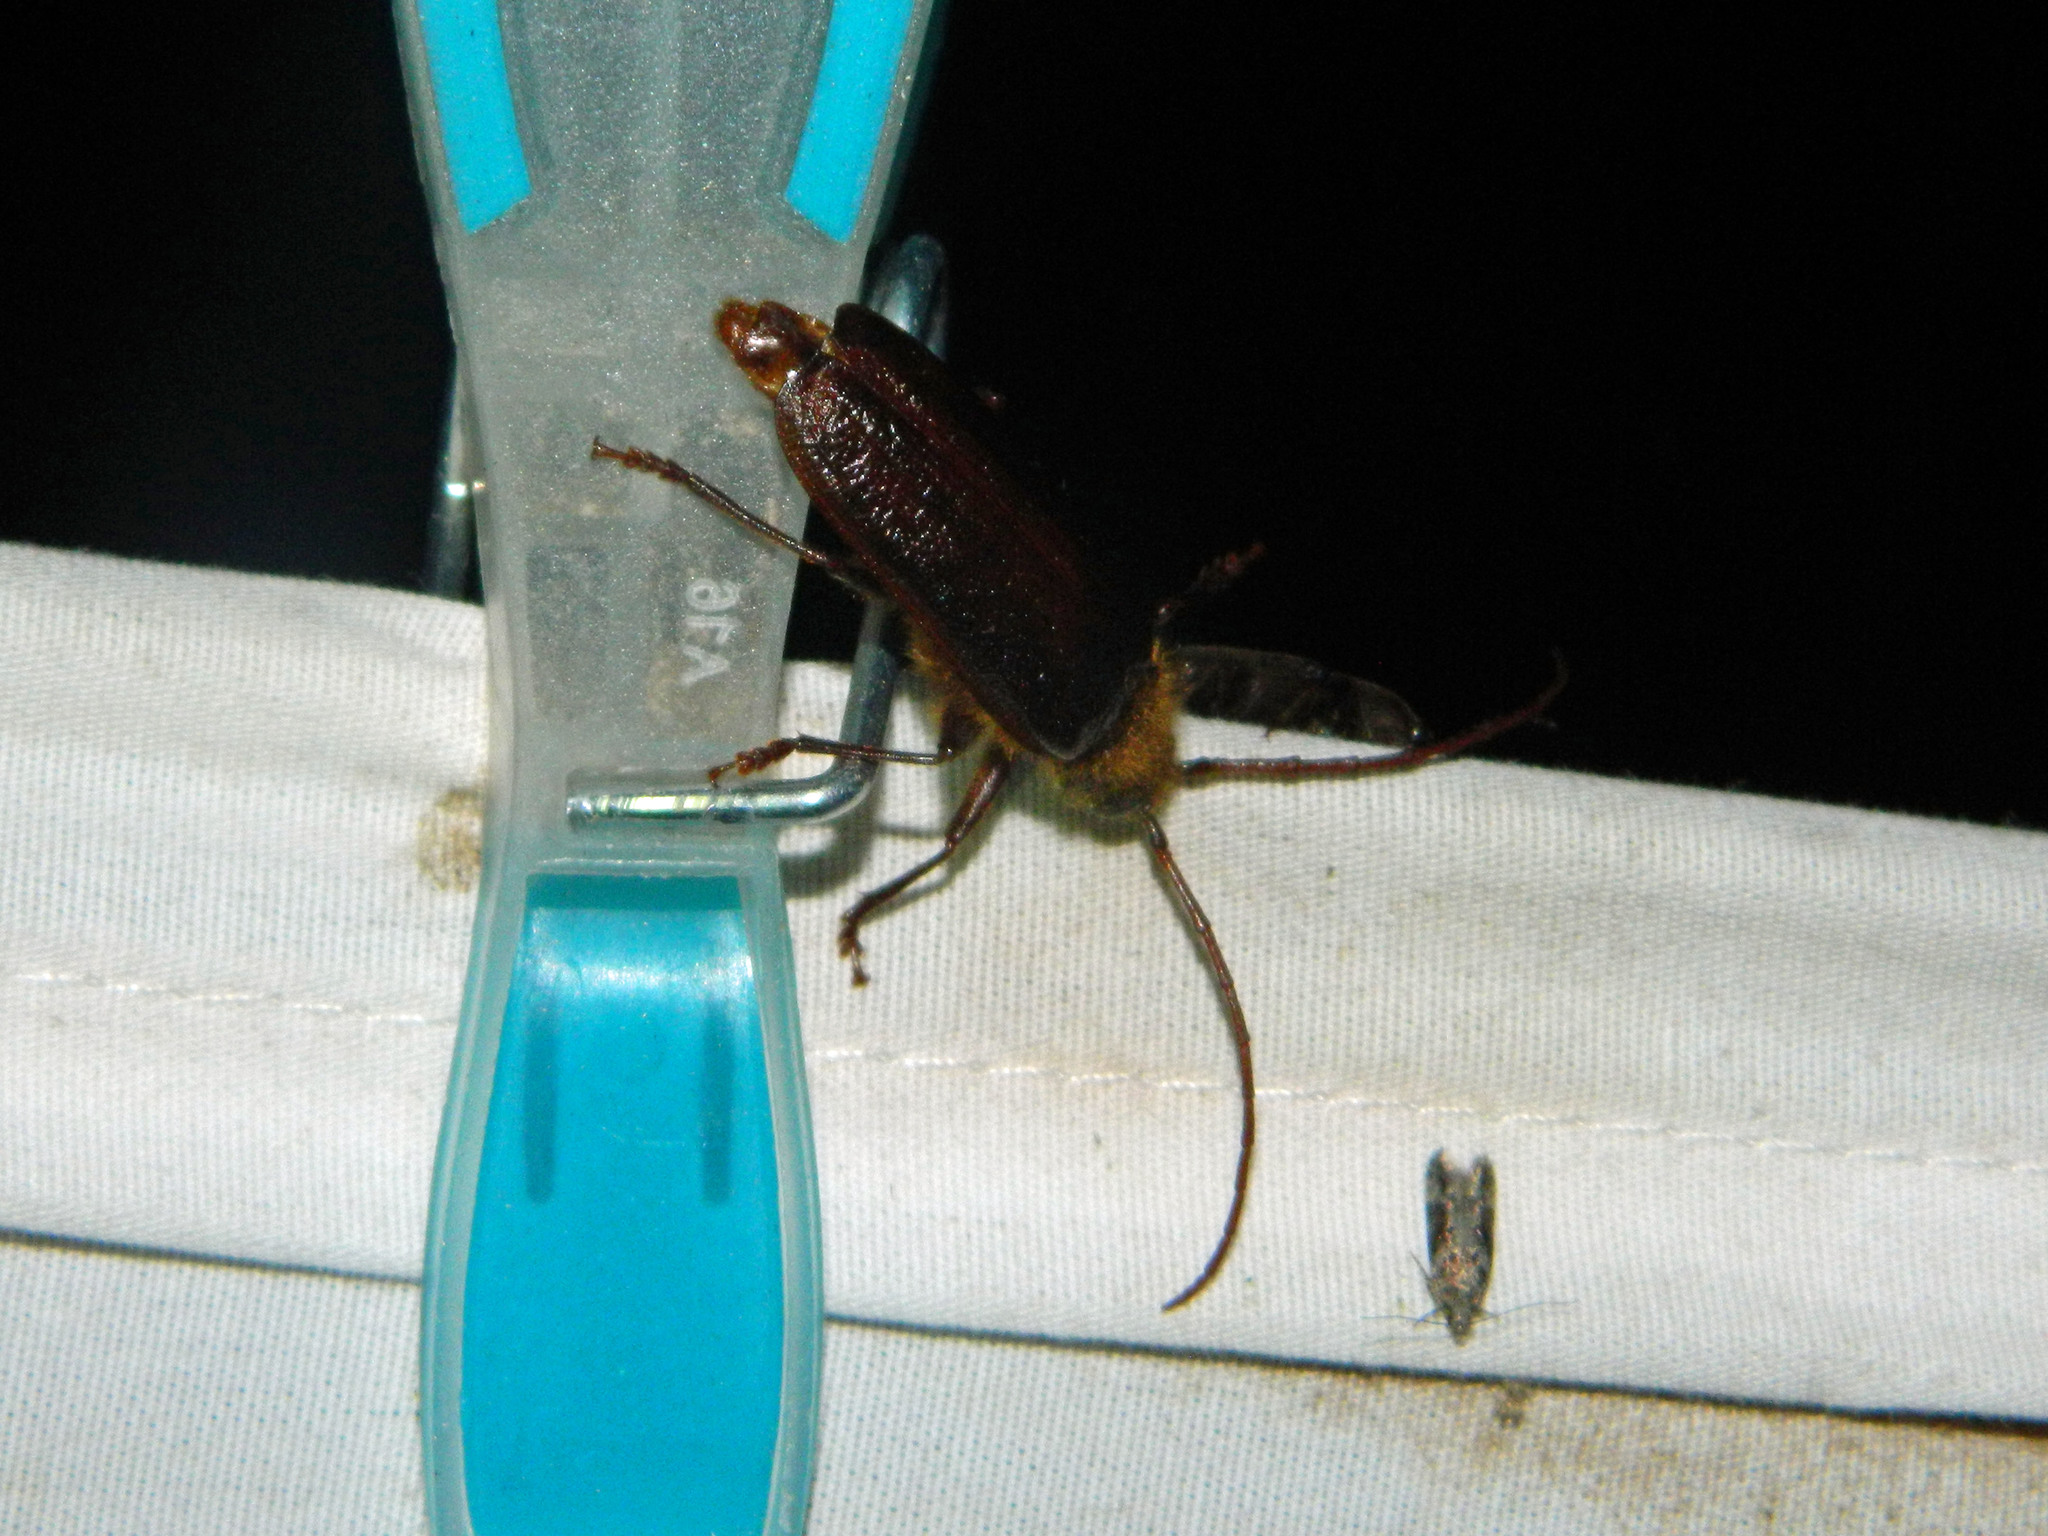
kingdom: Animalia
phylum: Arthropoda
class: Insecta
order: Coleoptera
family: Cerambycidae
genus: Tragosoma
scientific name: Tragosoma harrisii
